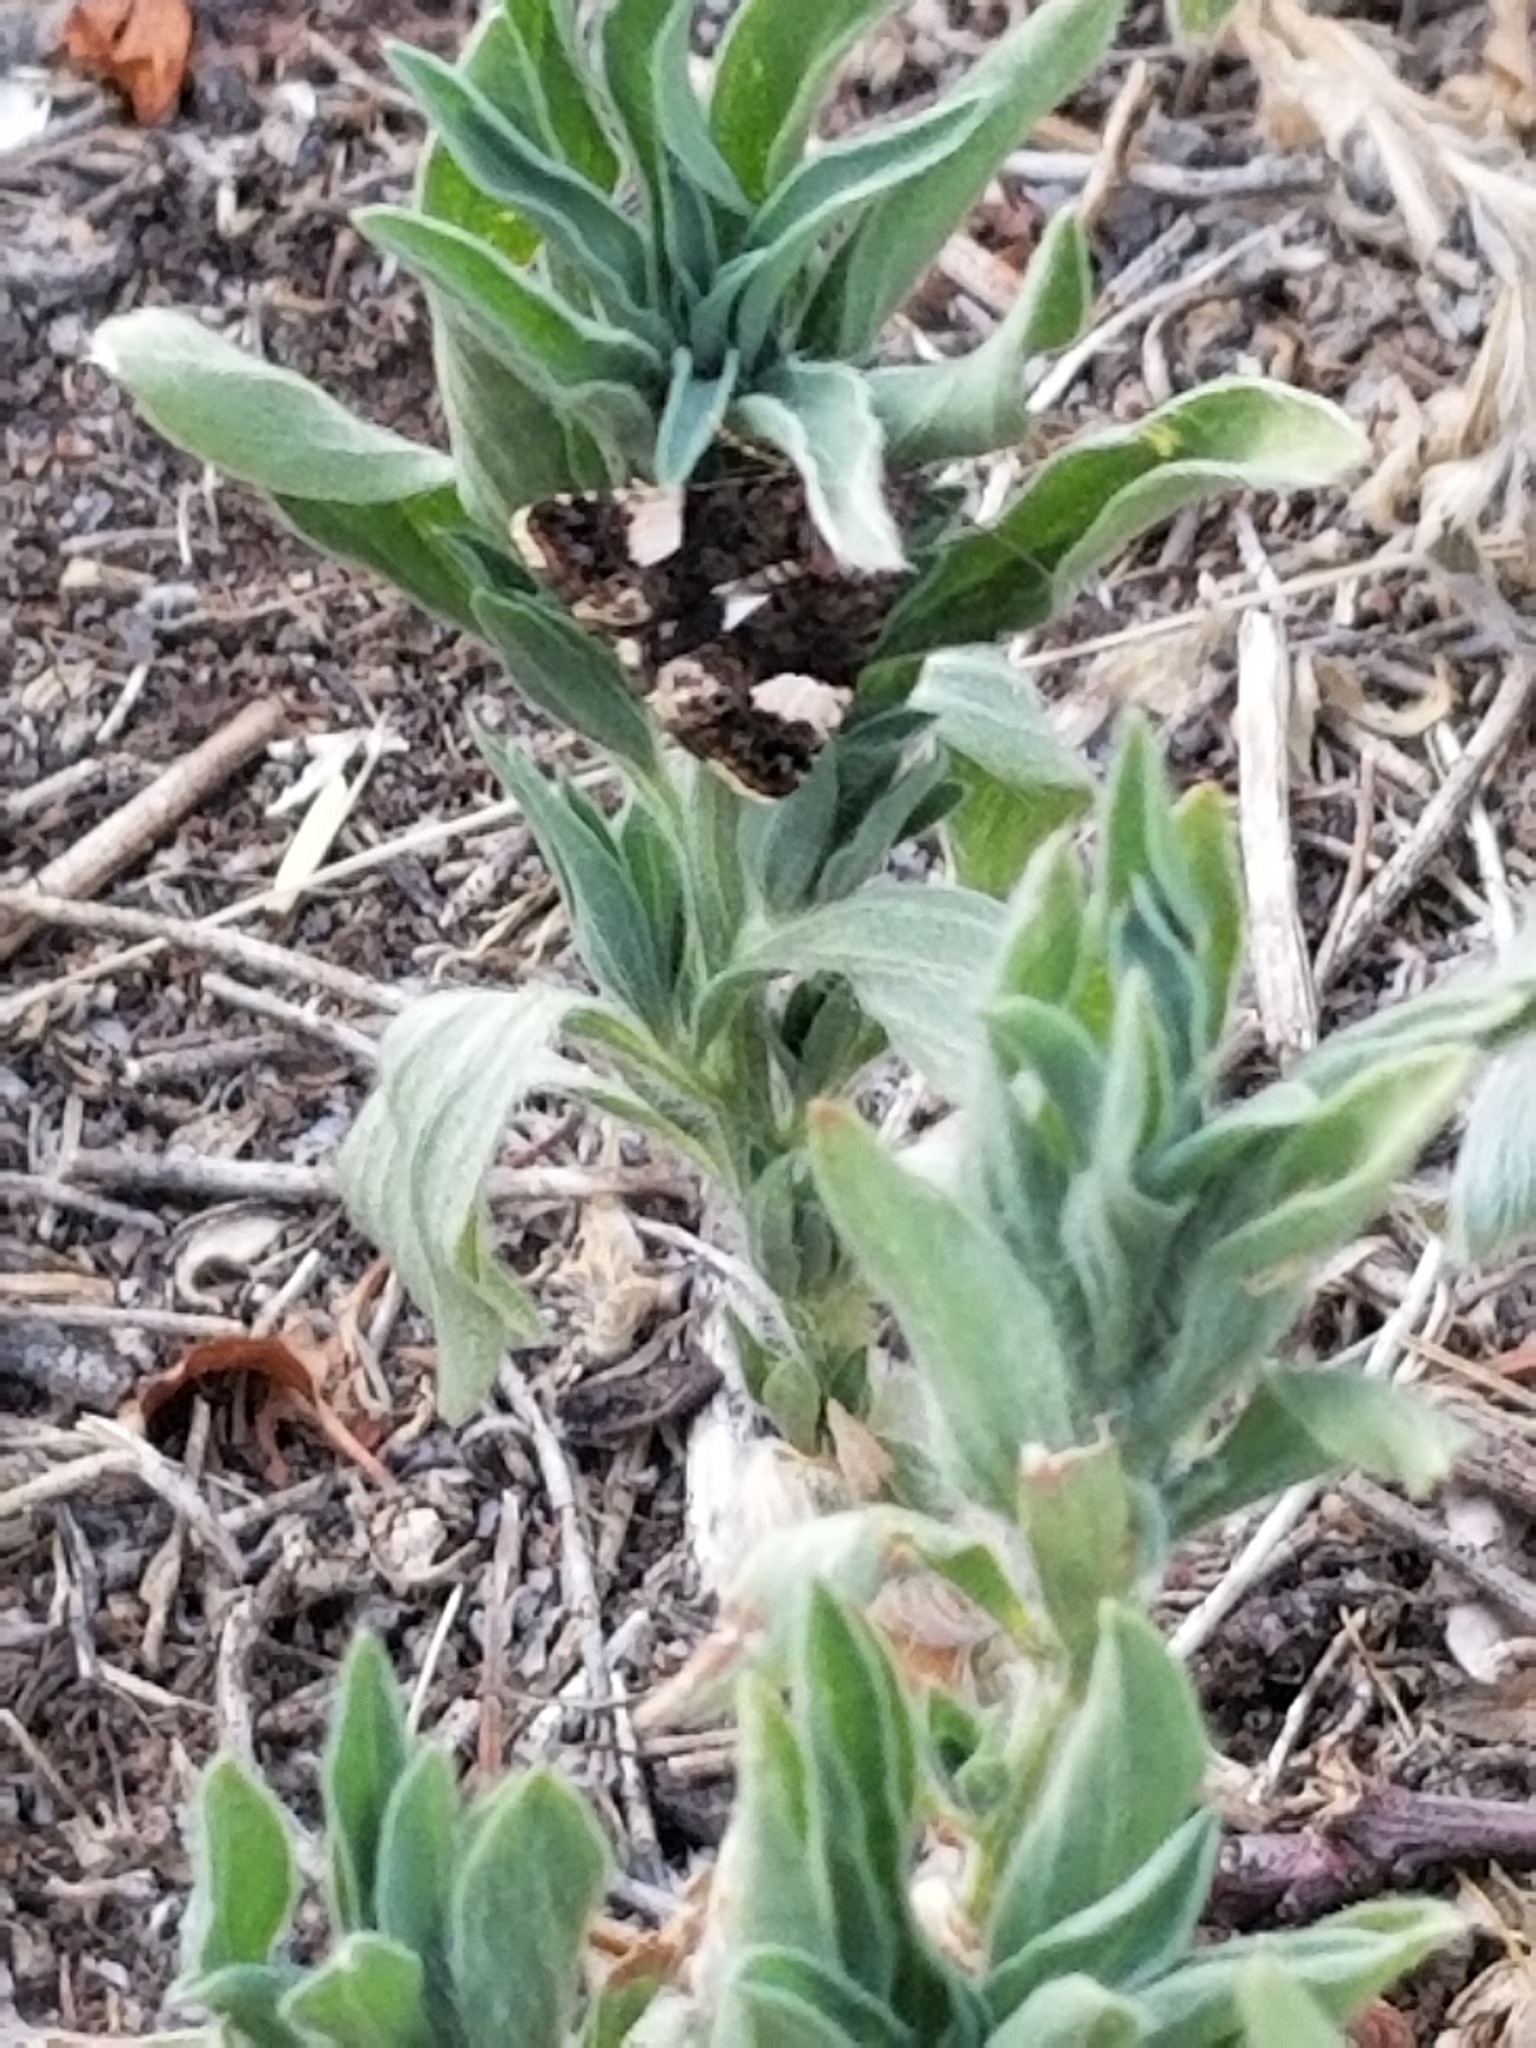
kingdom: Animalia
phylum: Arthropoda
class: Insecta
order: Lepidoptera
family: Erebidae
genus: Tyta
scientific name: Tyta luctuosa
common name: Four-spotted
